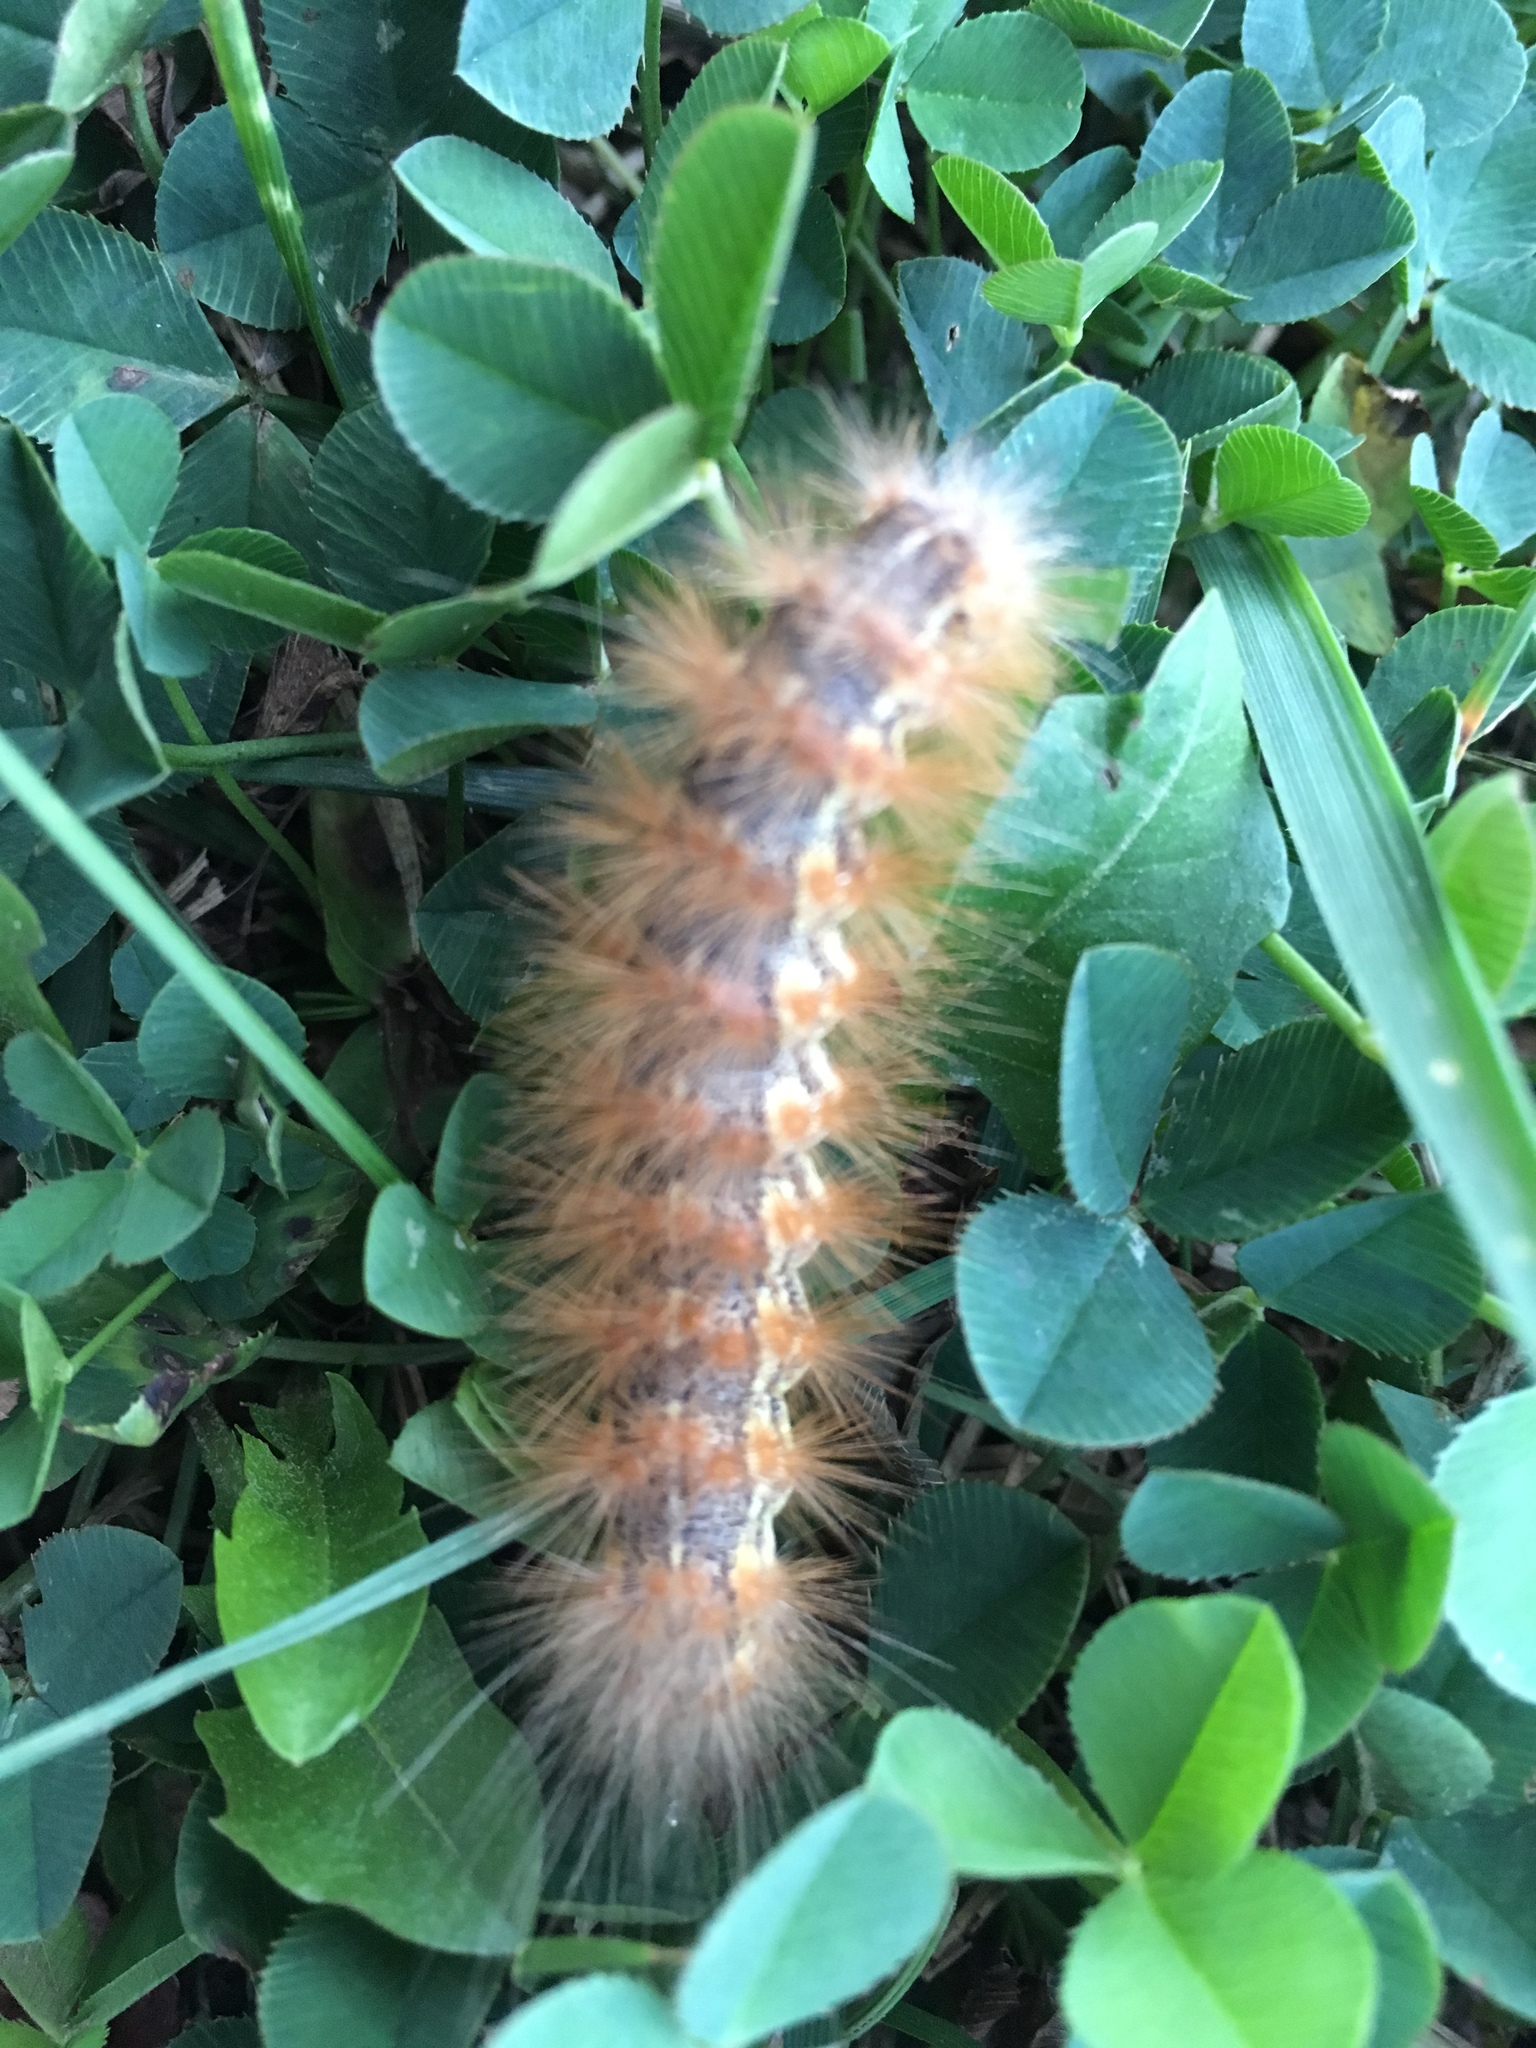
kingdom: Animalia
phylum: Arthropoda
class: Insecta
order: Lepidoptera
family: Erebidae
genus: Estigmene
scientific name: Estigmene acrea
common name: Salt marsh moth
